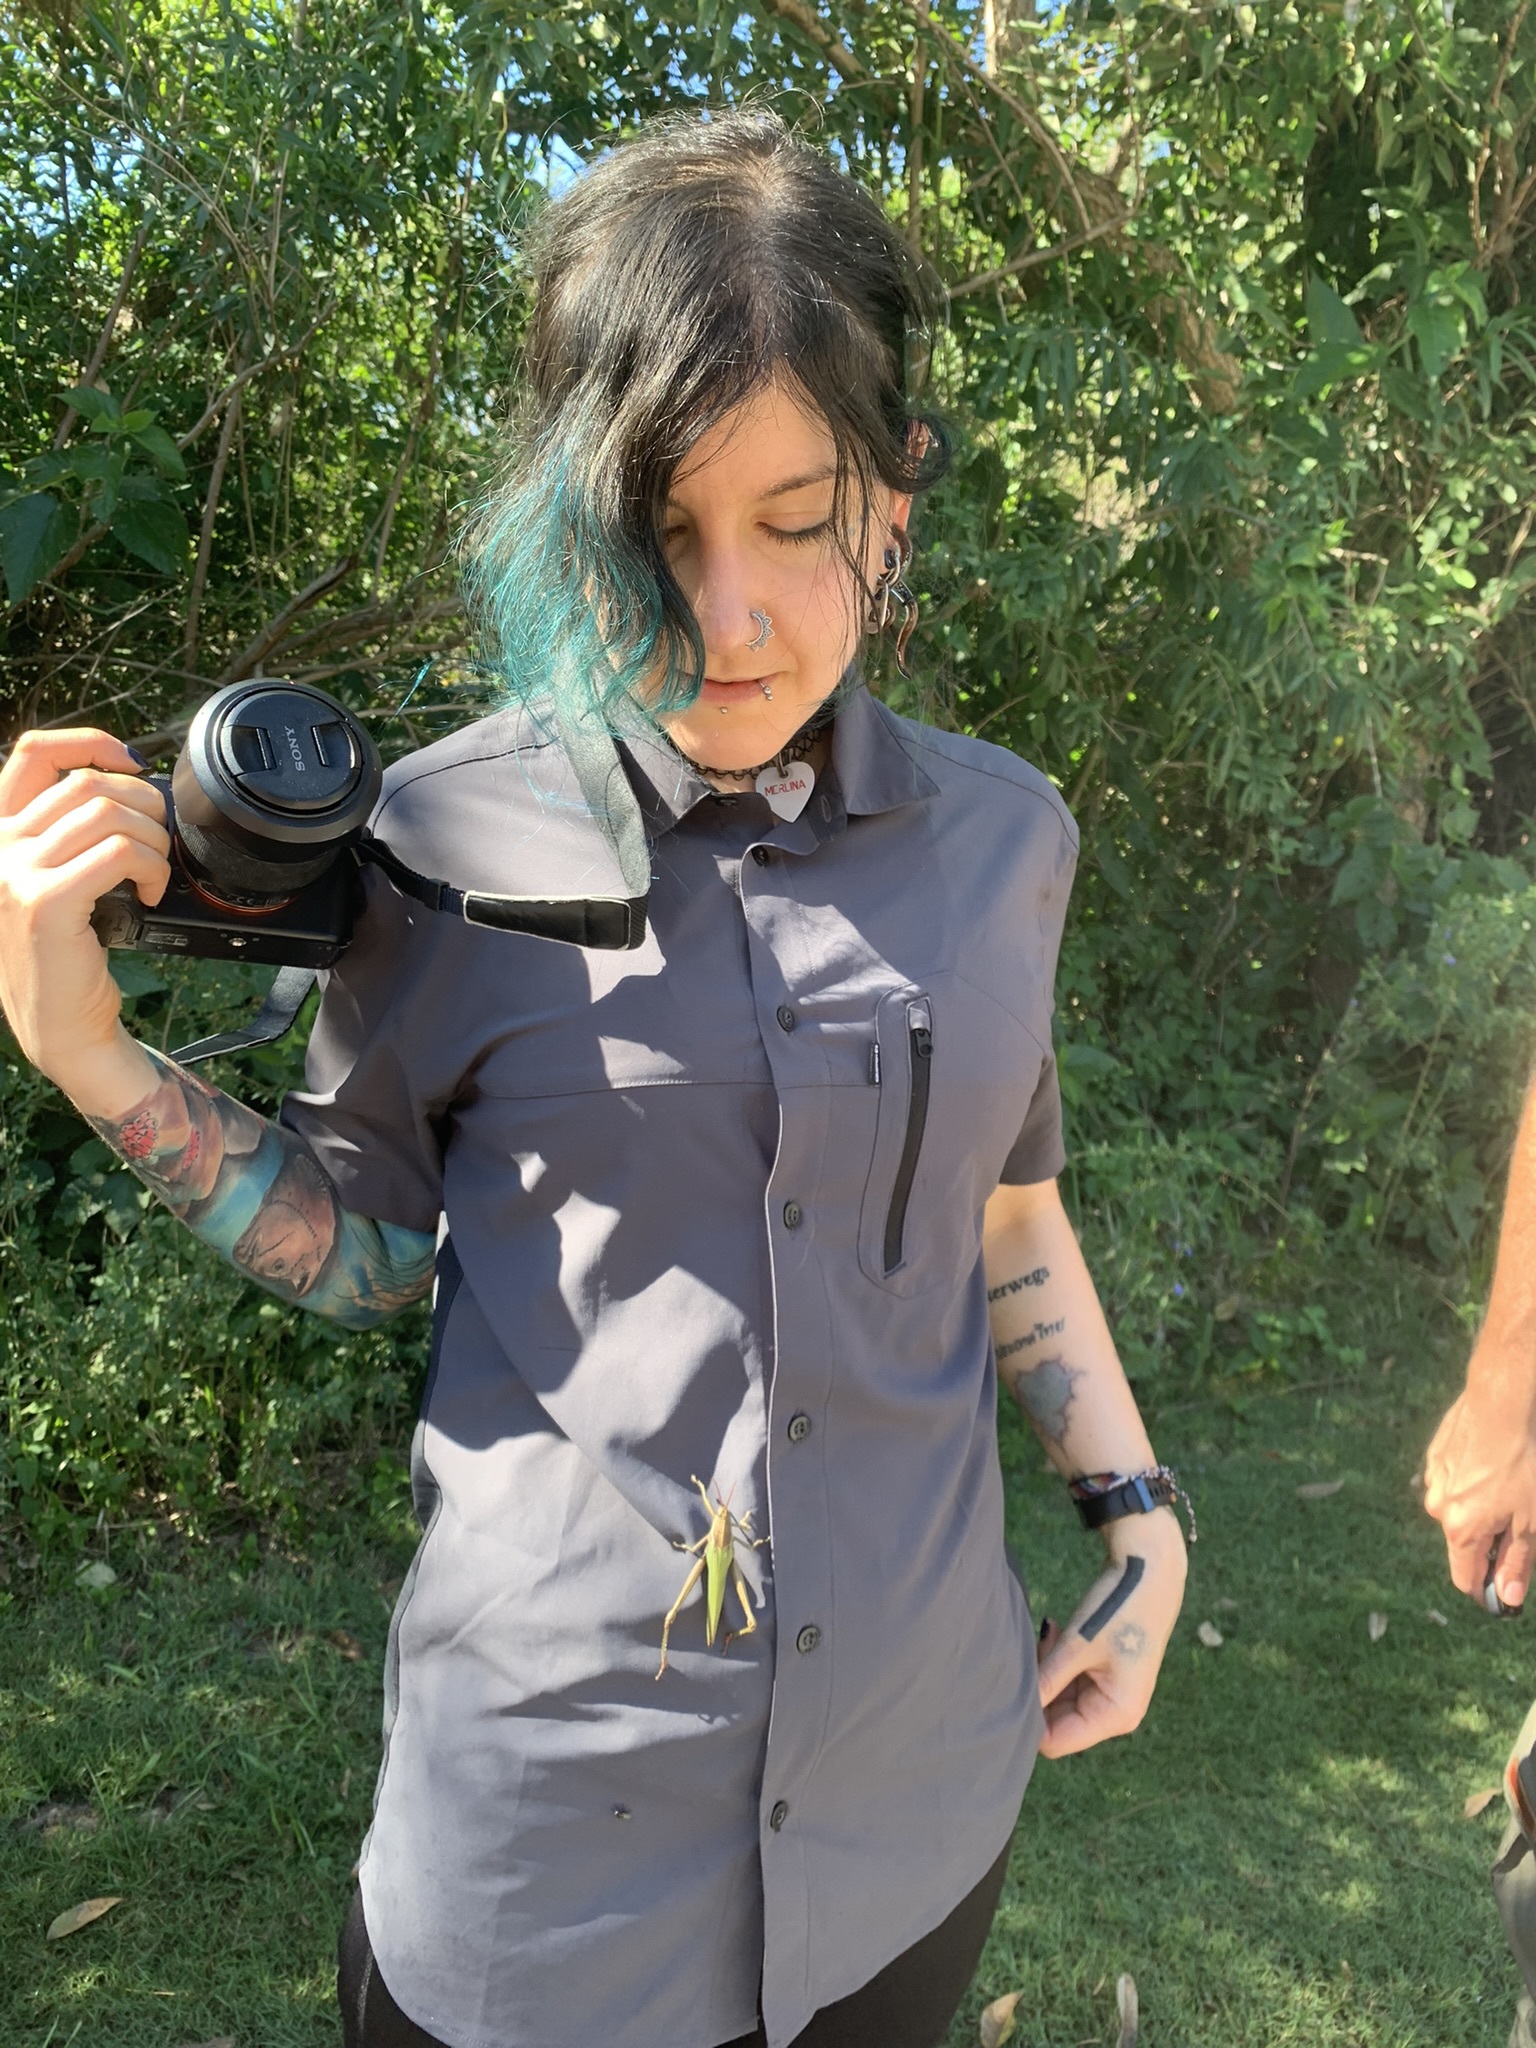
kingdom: Animalia
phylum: Arthropoda
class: Insecta
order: Orthoptera
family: Romaleidae
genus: Coryacris
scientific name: Coryacris angustipennis
